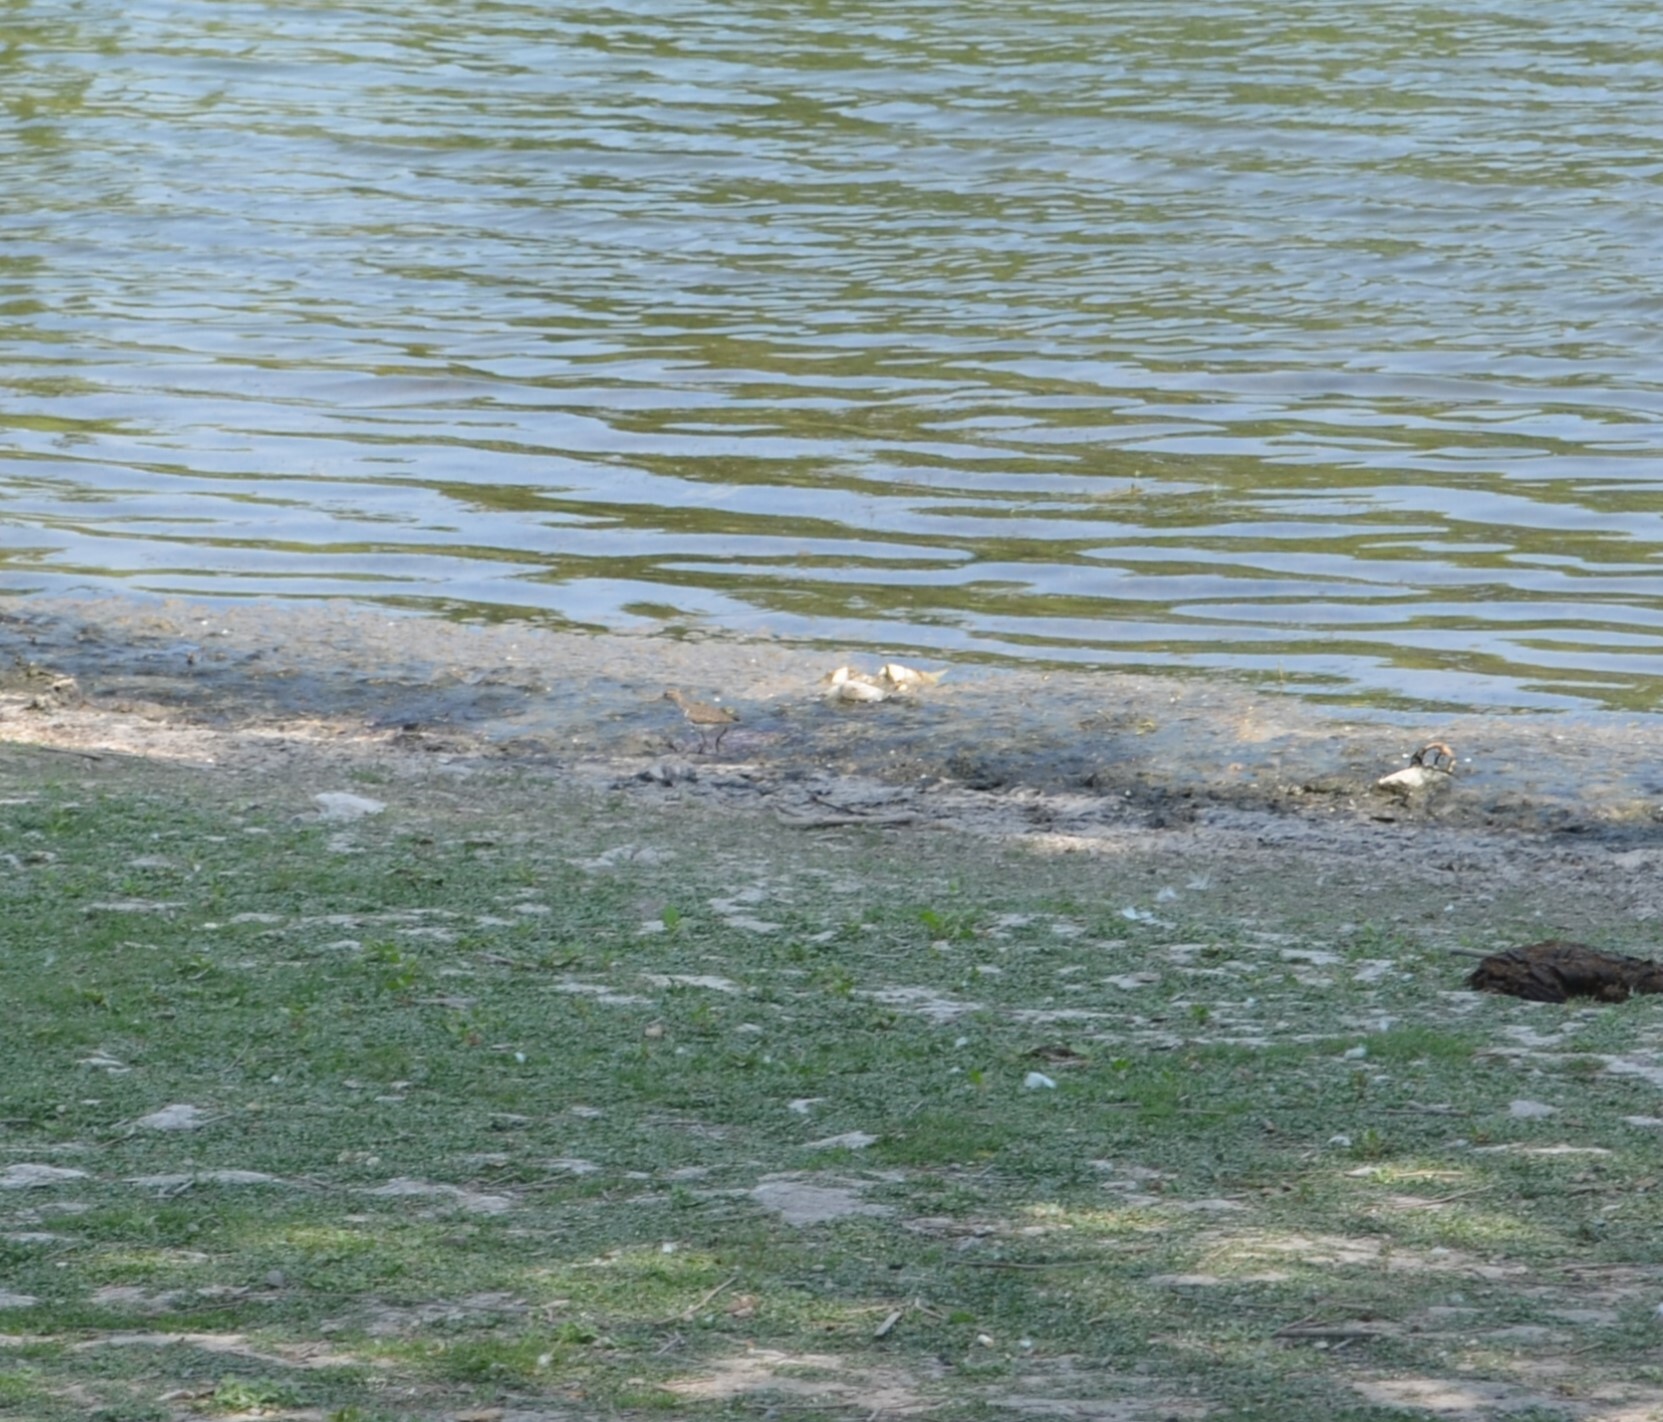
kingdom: Animalia
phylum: Chordata
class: Aves
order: Charadriiformes
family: Scolopacidae
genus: Actitis
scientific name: Actitis macularius
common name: Spotted sandpiper
